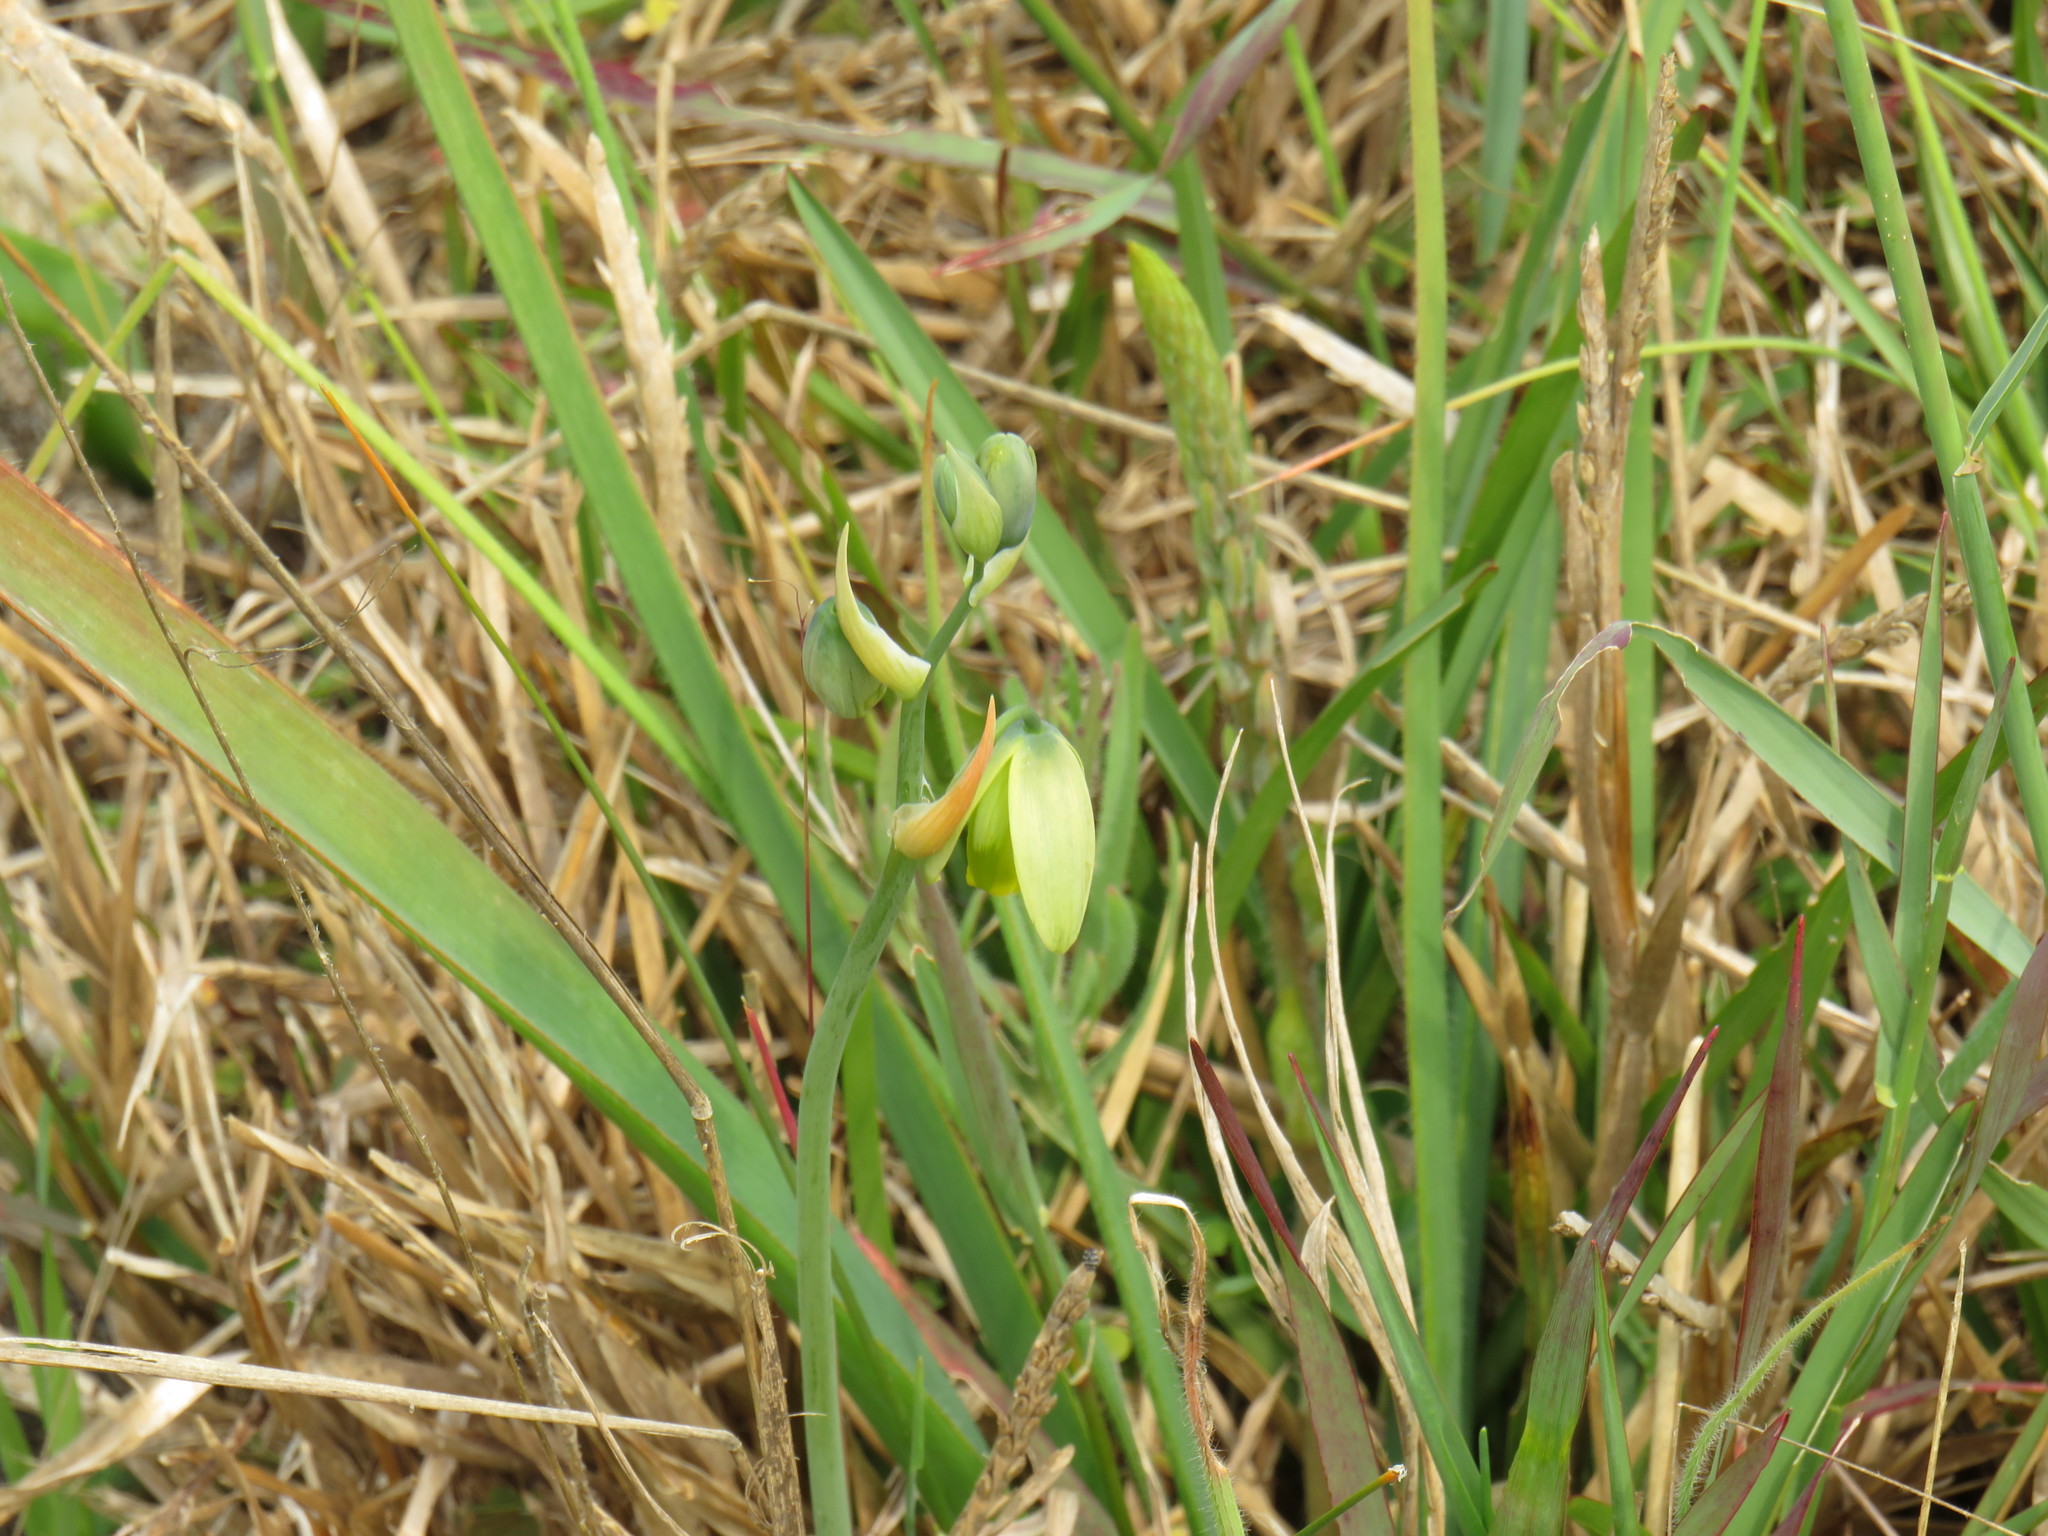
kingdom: Plantae
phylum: Tracheophyta
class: Liliopsida
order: Asparagales
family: Asparagaceae
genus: Albuca
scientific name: Albuca cooperi
